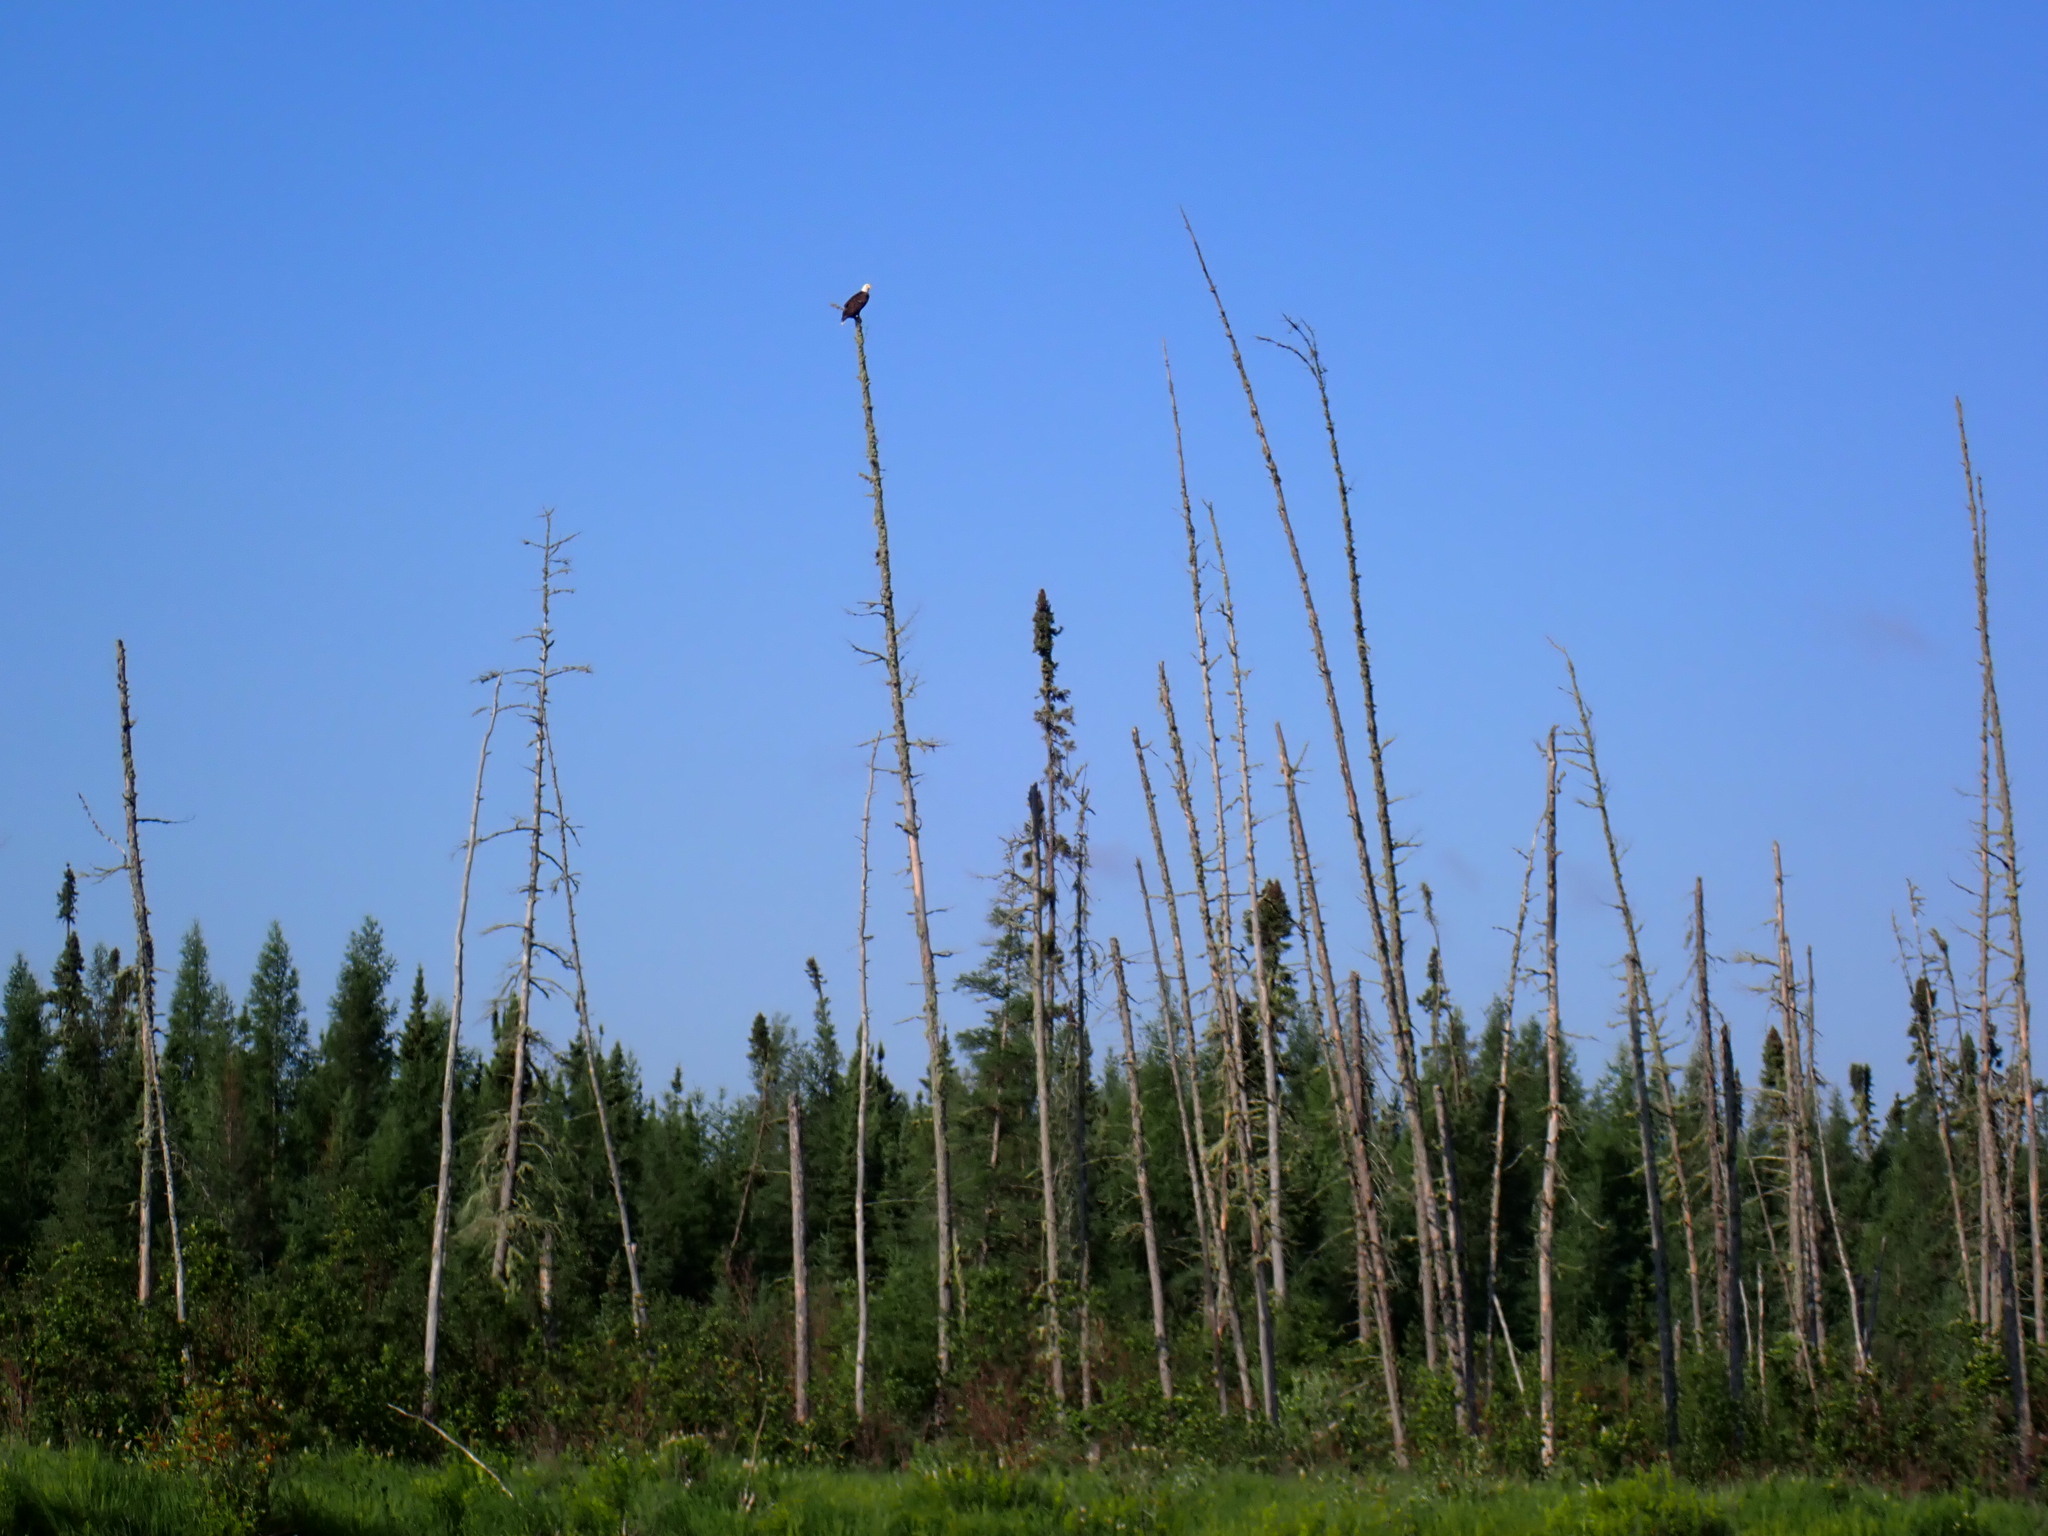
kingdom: Animalia
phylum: Chordata
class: Aves
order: Accipitriformes
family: Accipitridae
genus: Haliaeetus
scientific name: Haliaeetus leucocephalus
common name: Bald eagle
